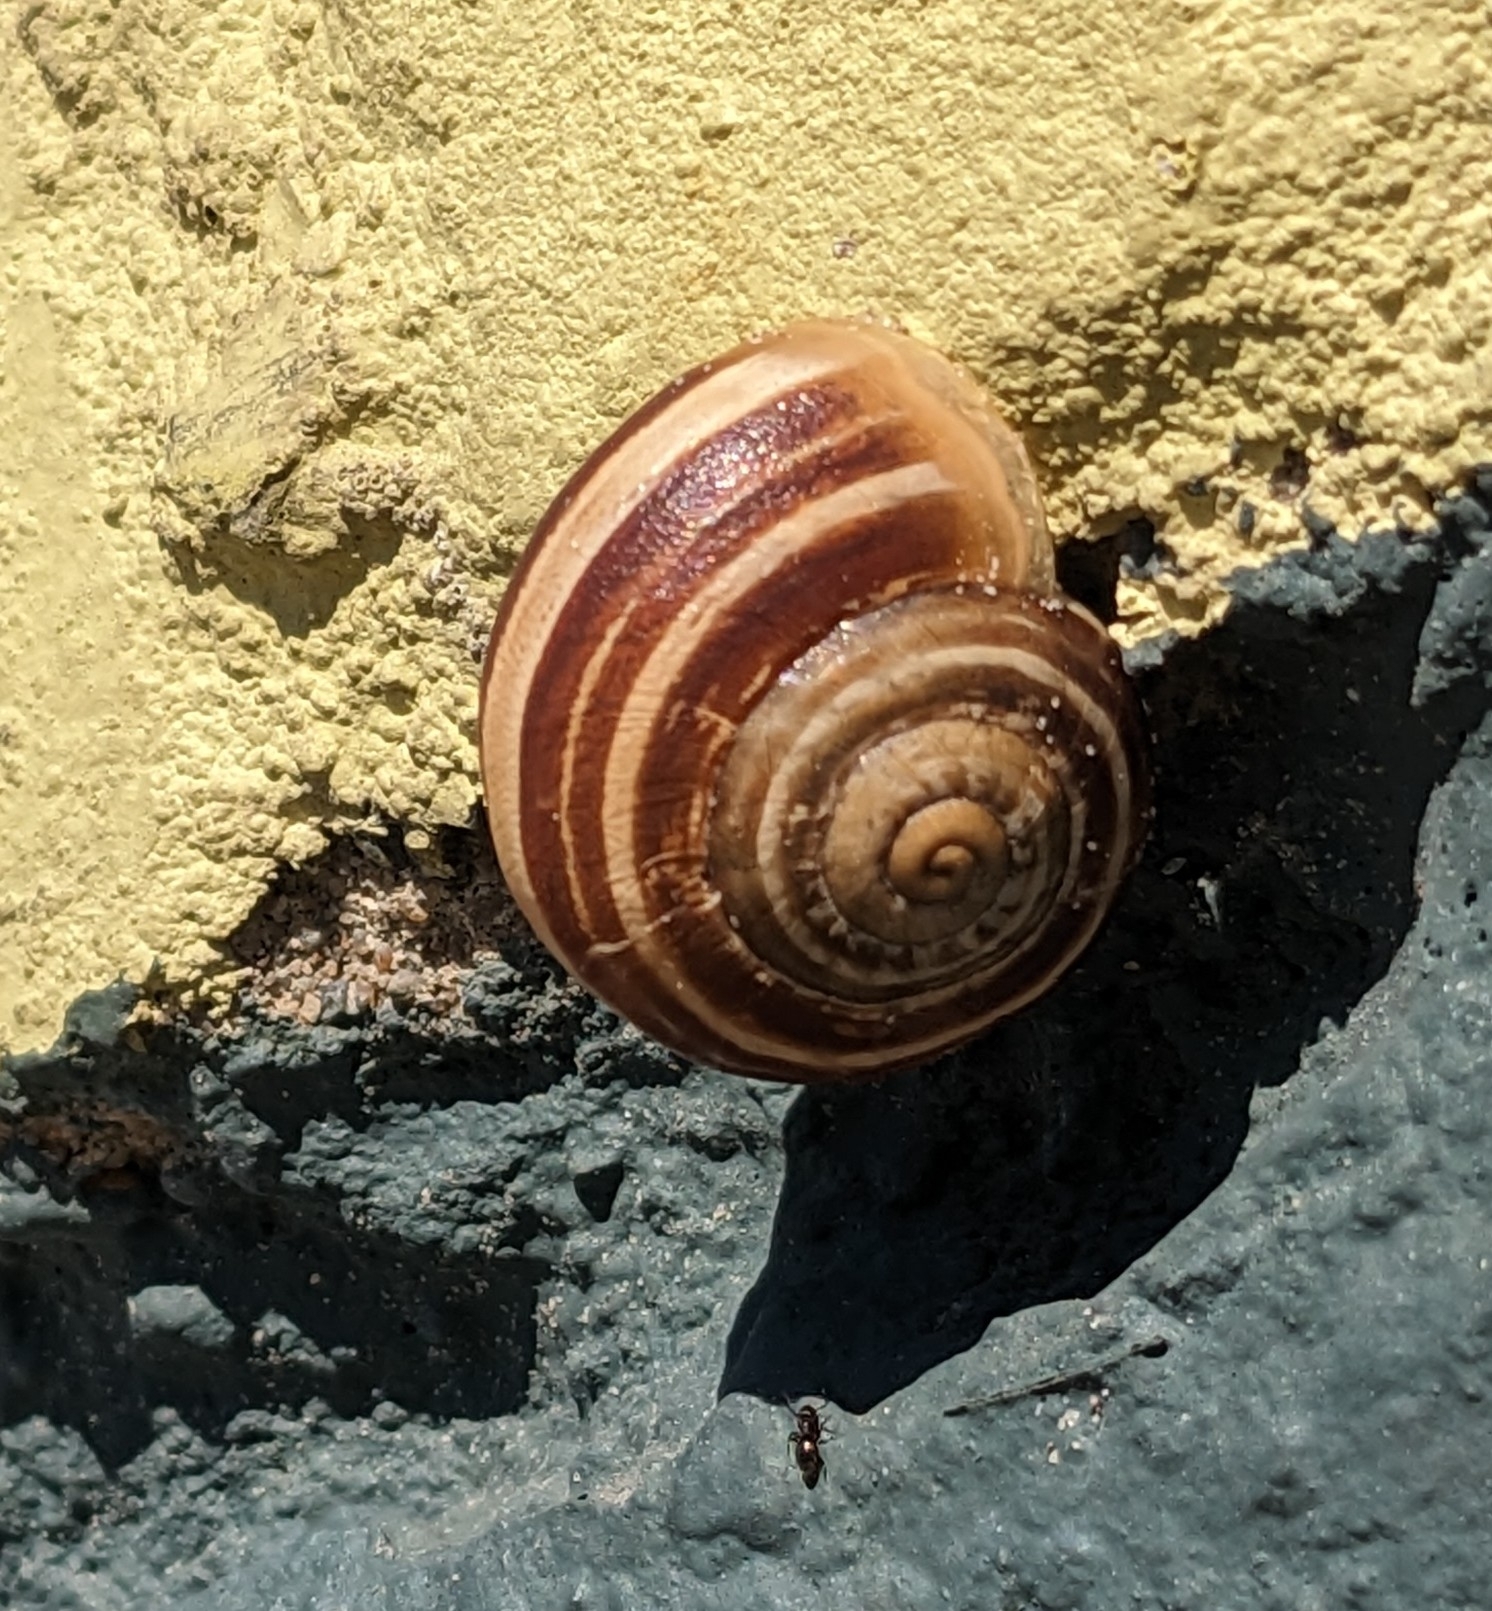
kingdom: Animalia
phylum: Mollusca
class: Gastropoda
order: Stylommatophora
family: Helicidae
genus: Eobania
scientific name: Eobania vermiculata
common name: Chocolateband snail
